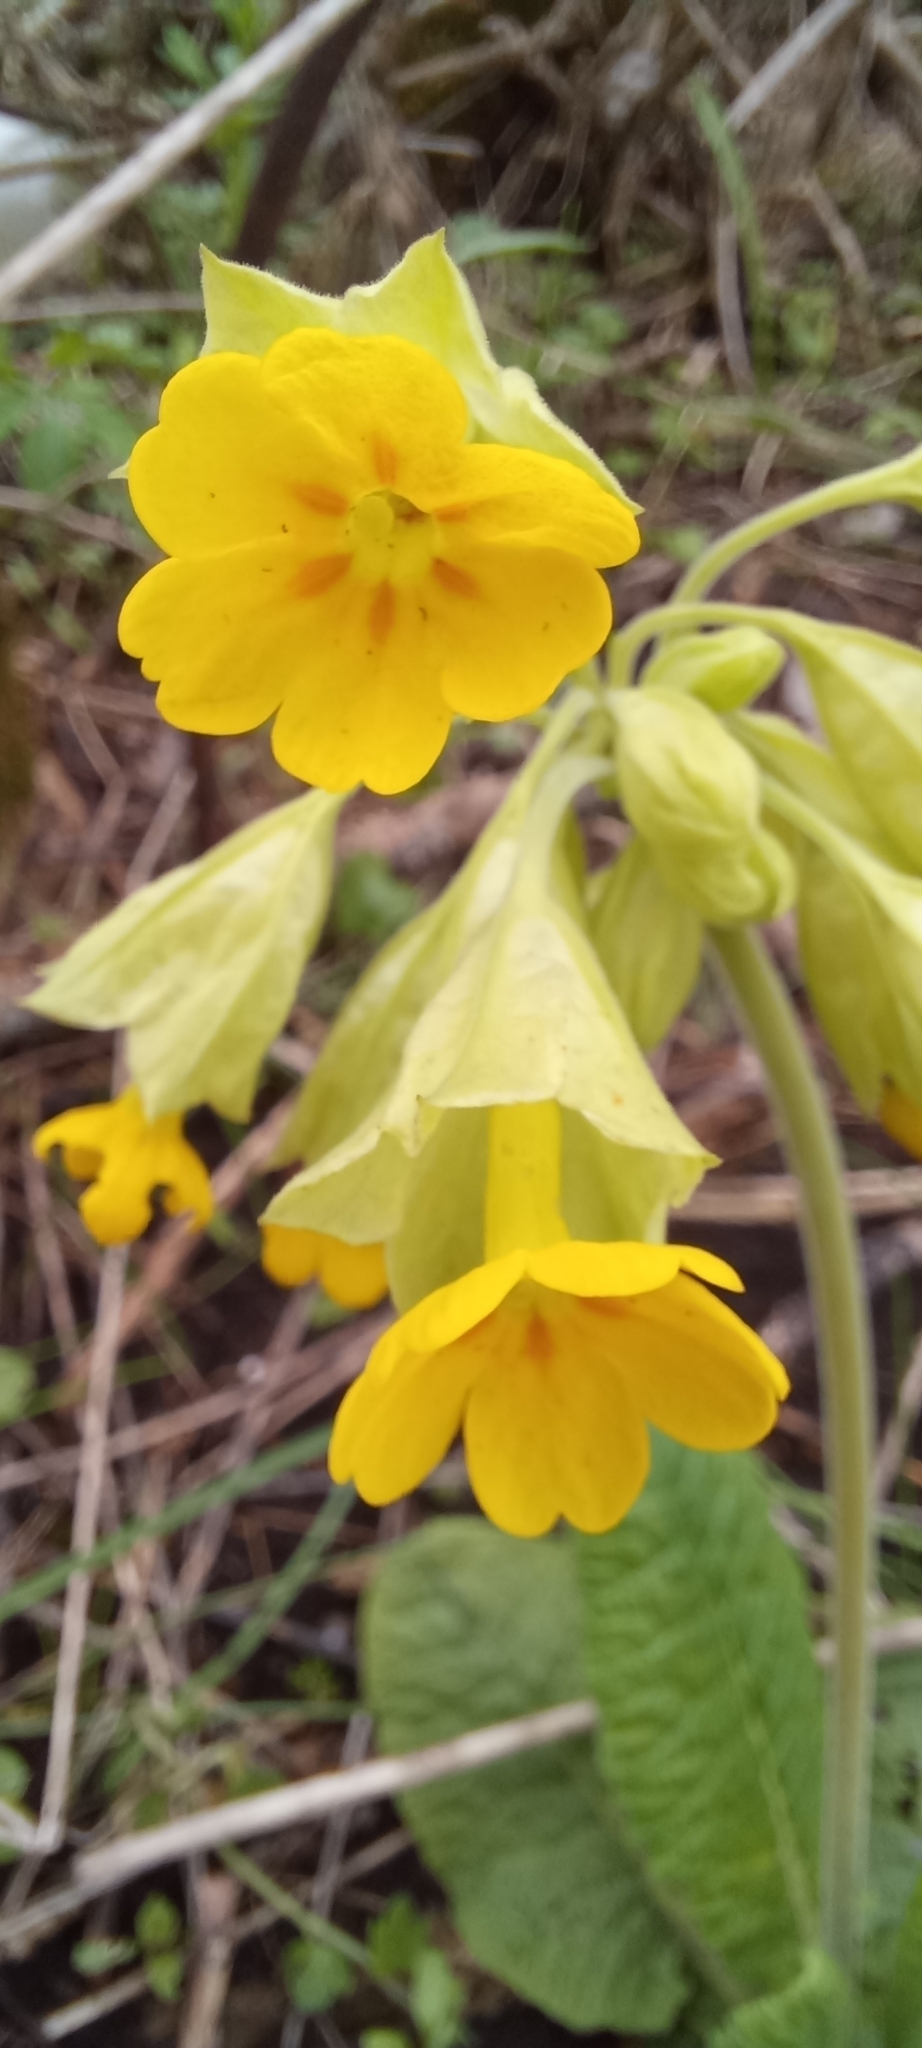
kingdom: Plantae
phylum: Tracheophyta
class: Magnoliopsida
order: Ericales
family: Primulaceae
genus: Primula
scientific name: Primula veris
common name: Cowslip
